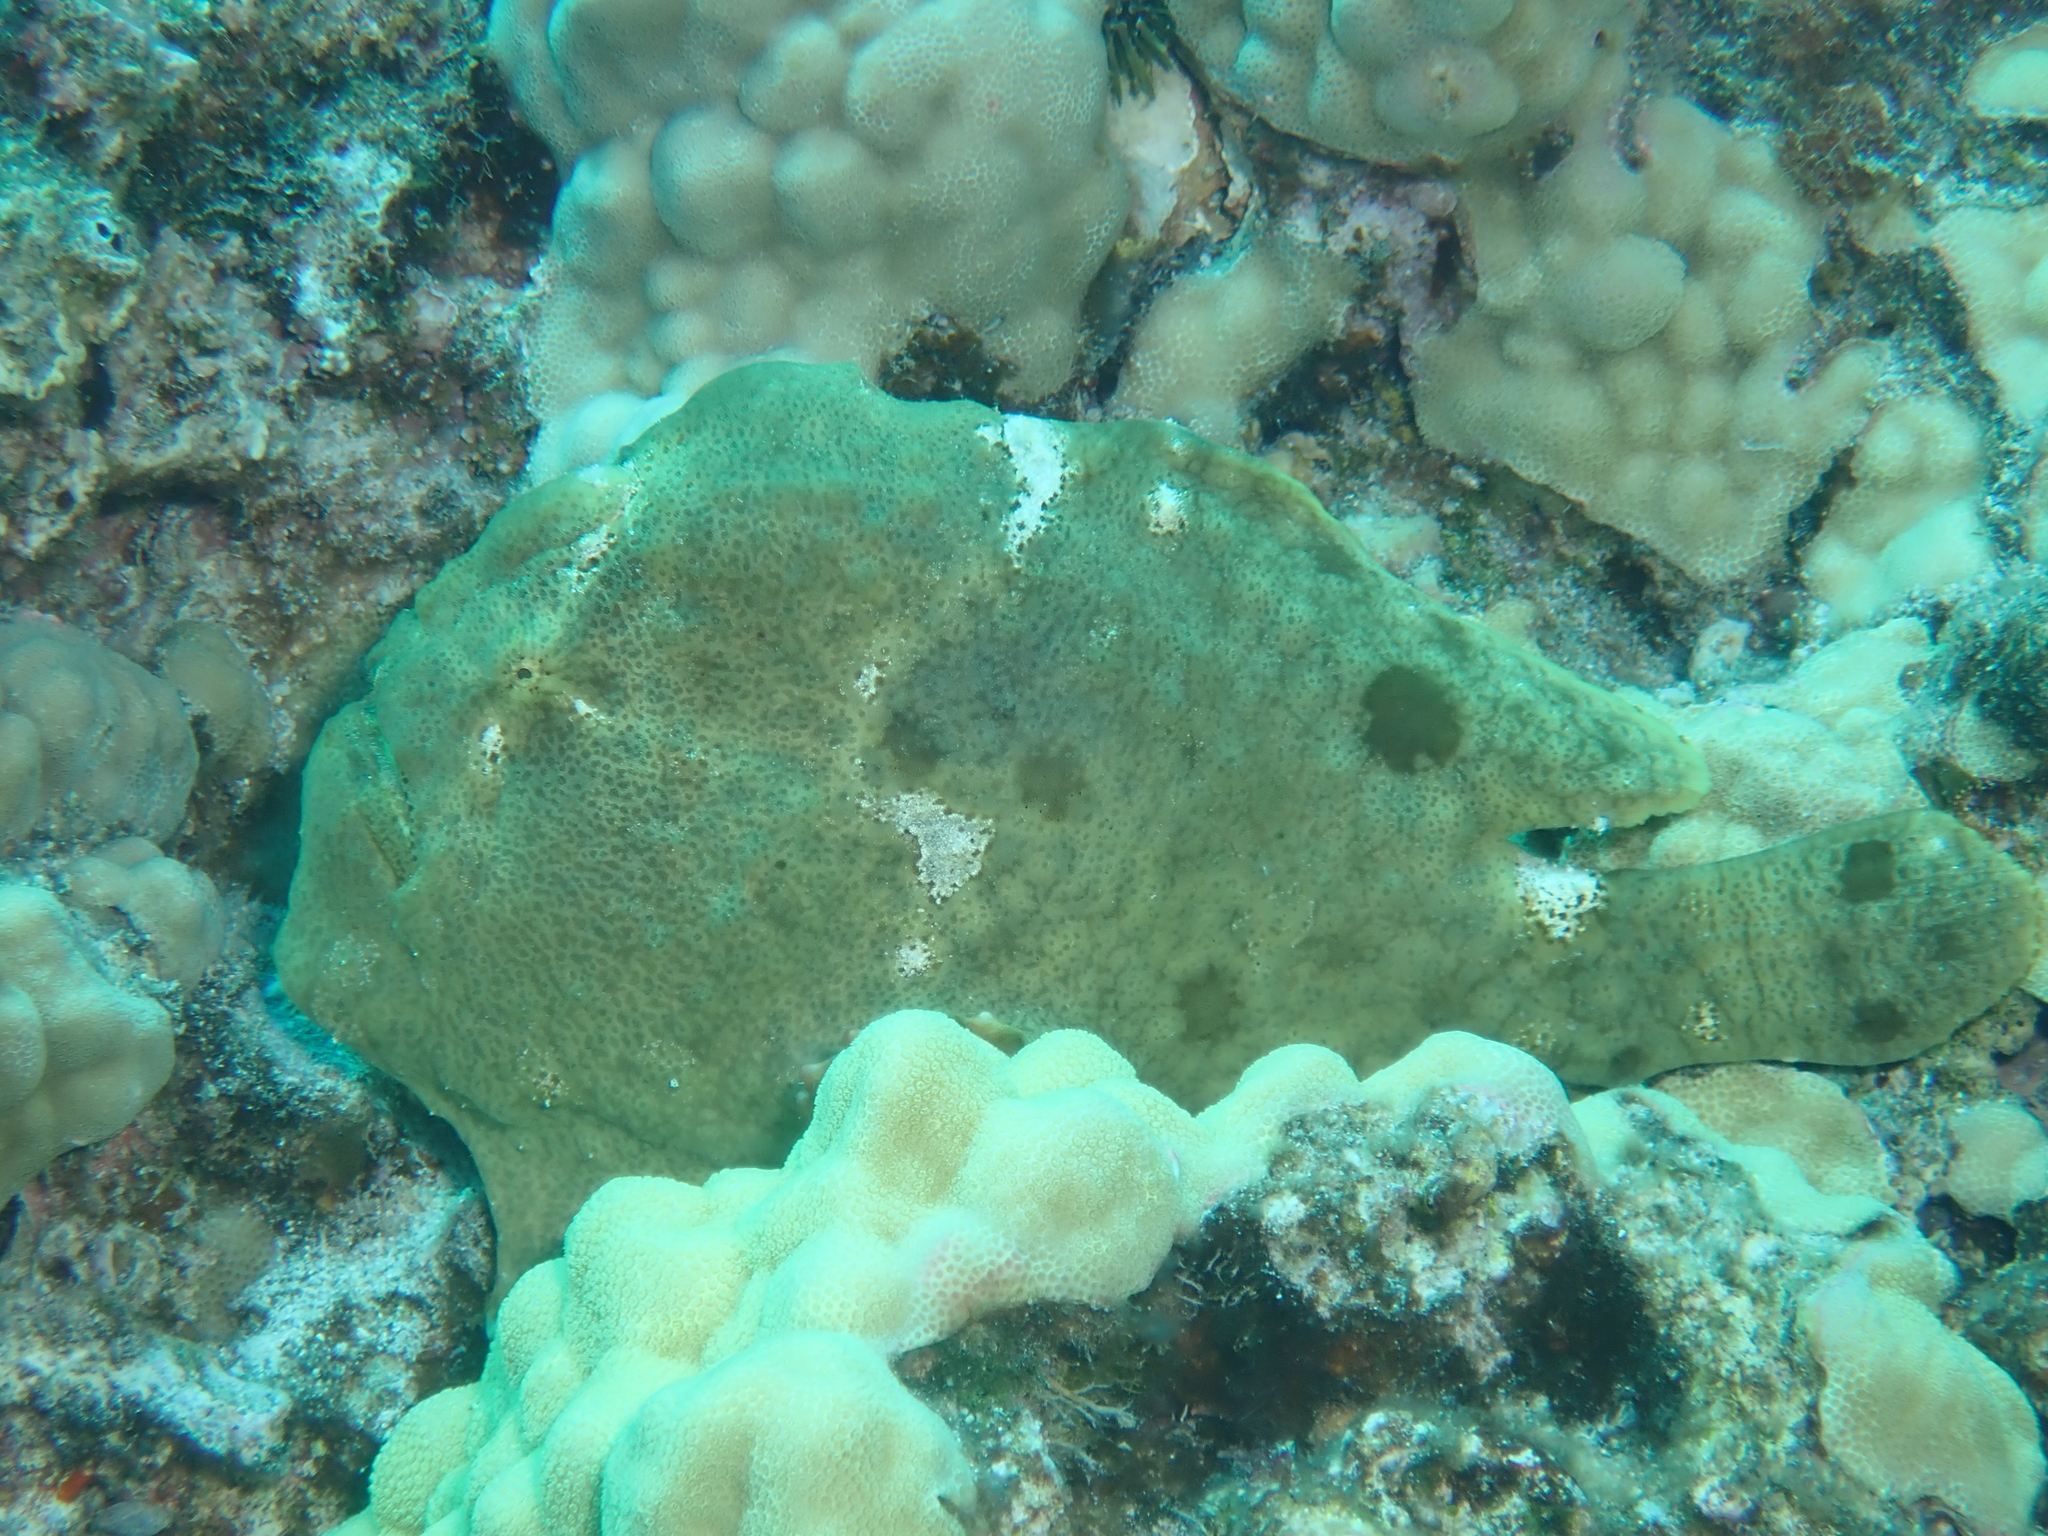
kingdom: Animalia
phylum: Chordata
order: Lophiiformes
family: Antennariidae
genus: Antennarius
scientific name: Antennarius commerson
